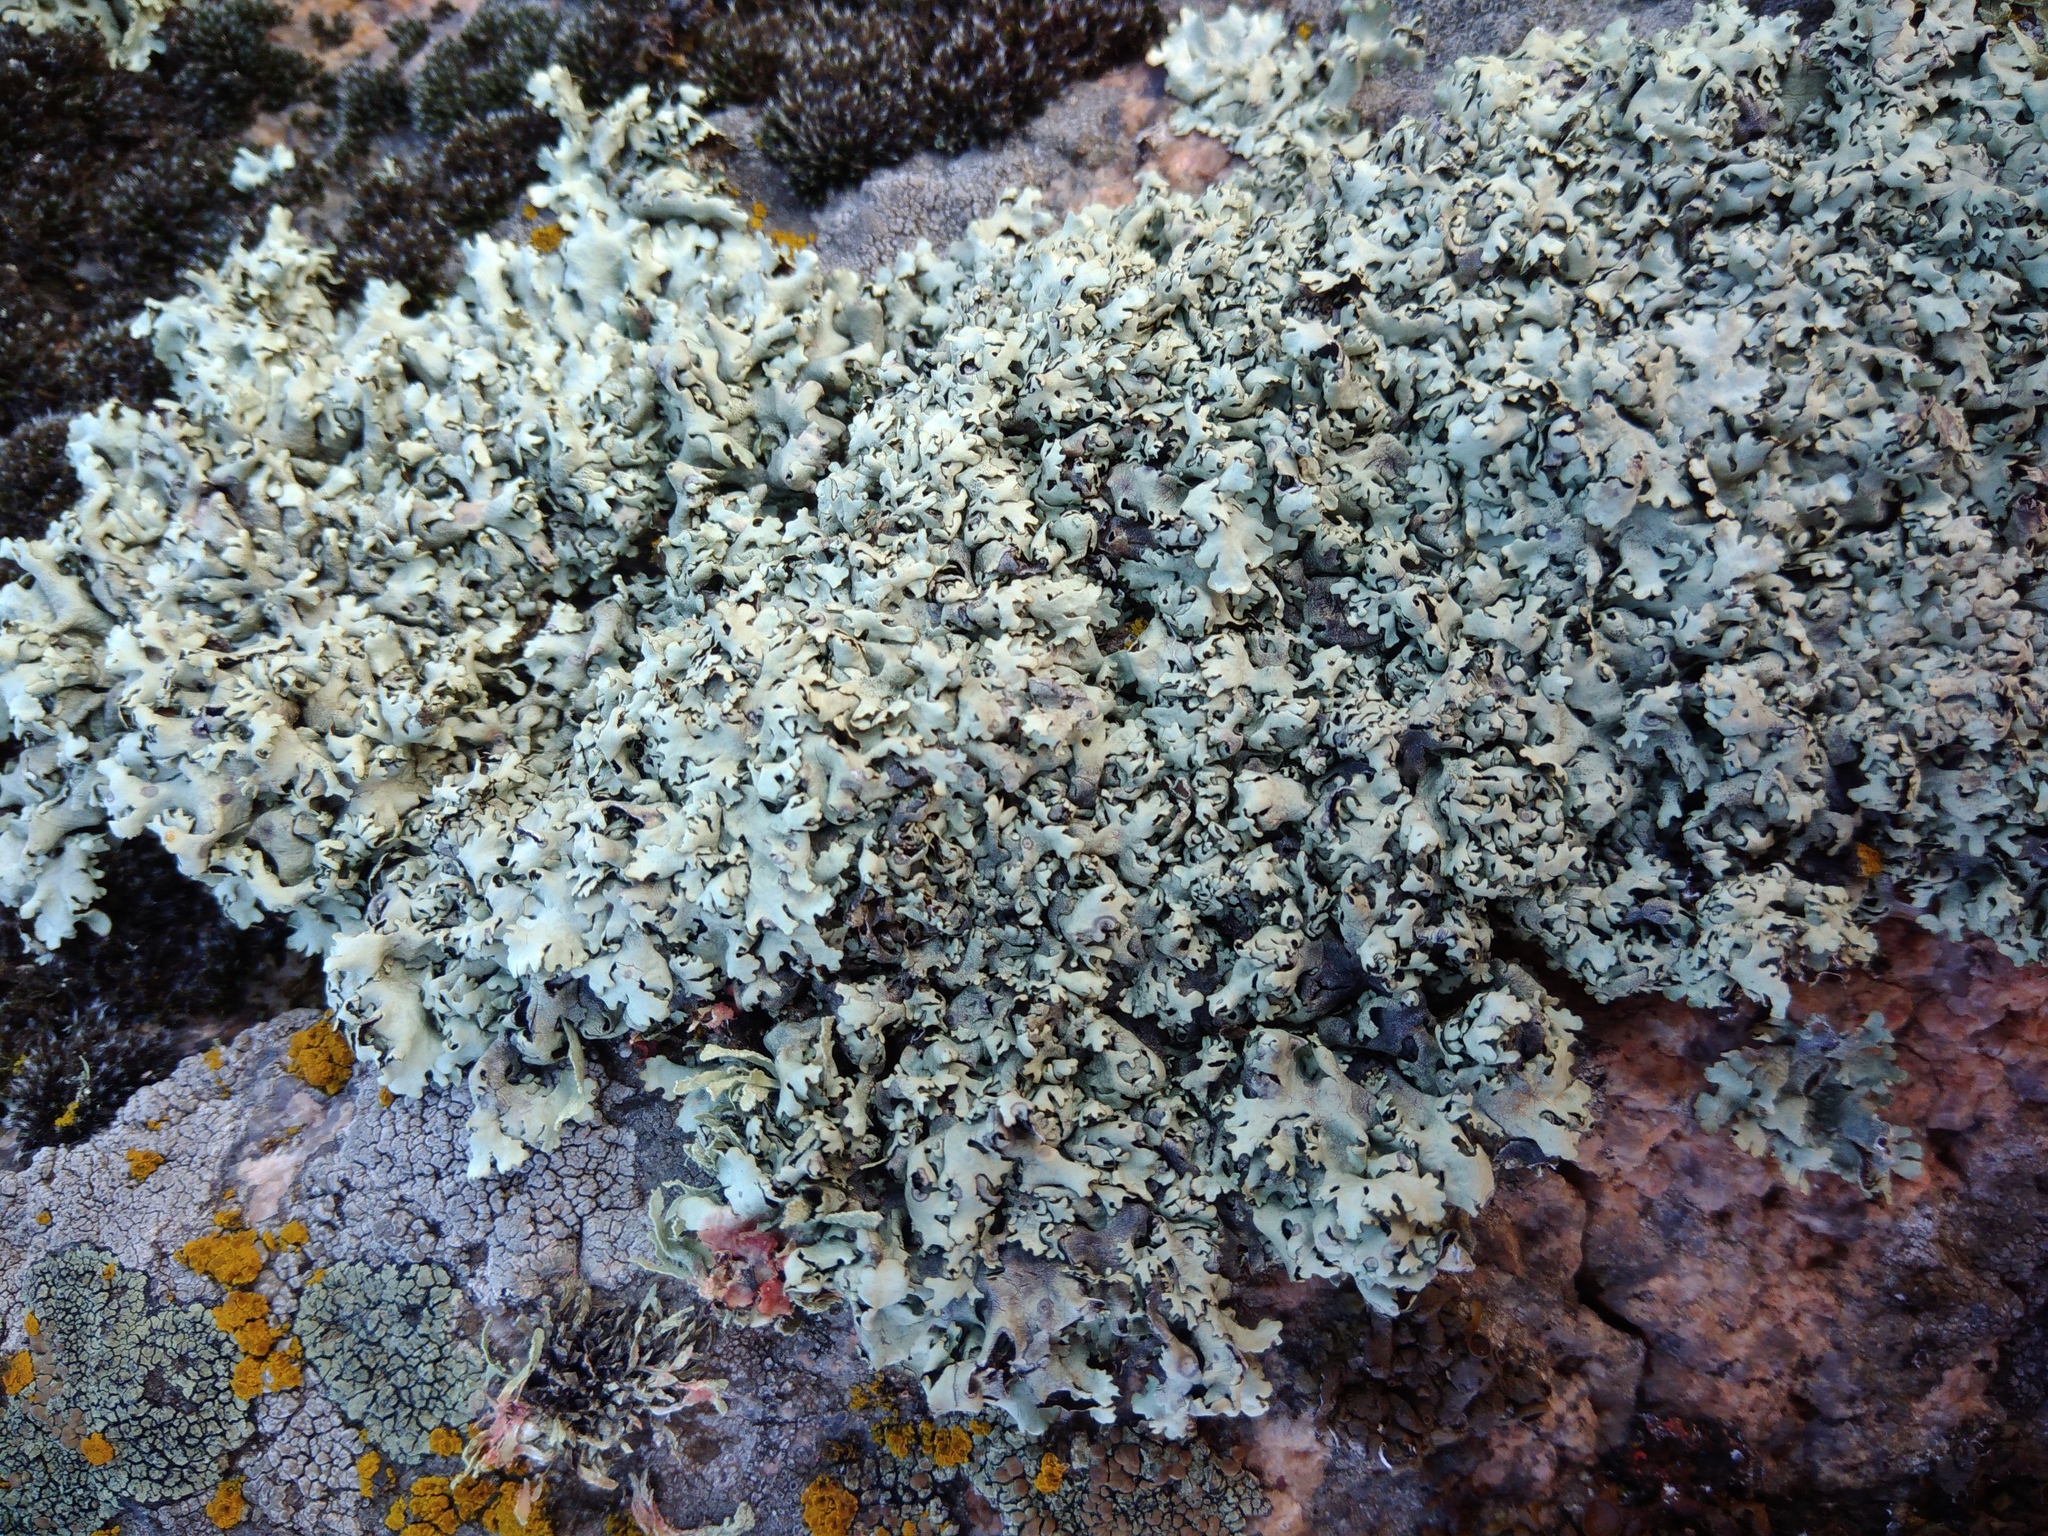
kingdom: Fungi
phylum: Ascomycota
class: Lecanoromycetes
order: Lecanorales
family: Parmeliaceae
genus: Xanthoparmelia
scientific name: Xanthoparmelia stenophylla
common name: Shingled rock shield
